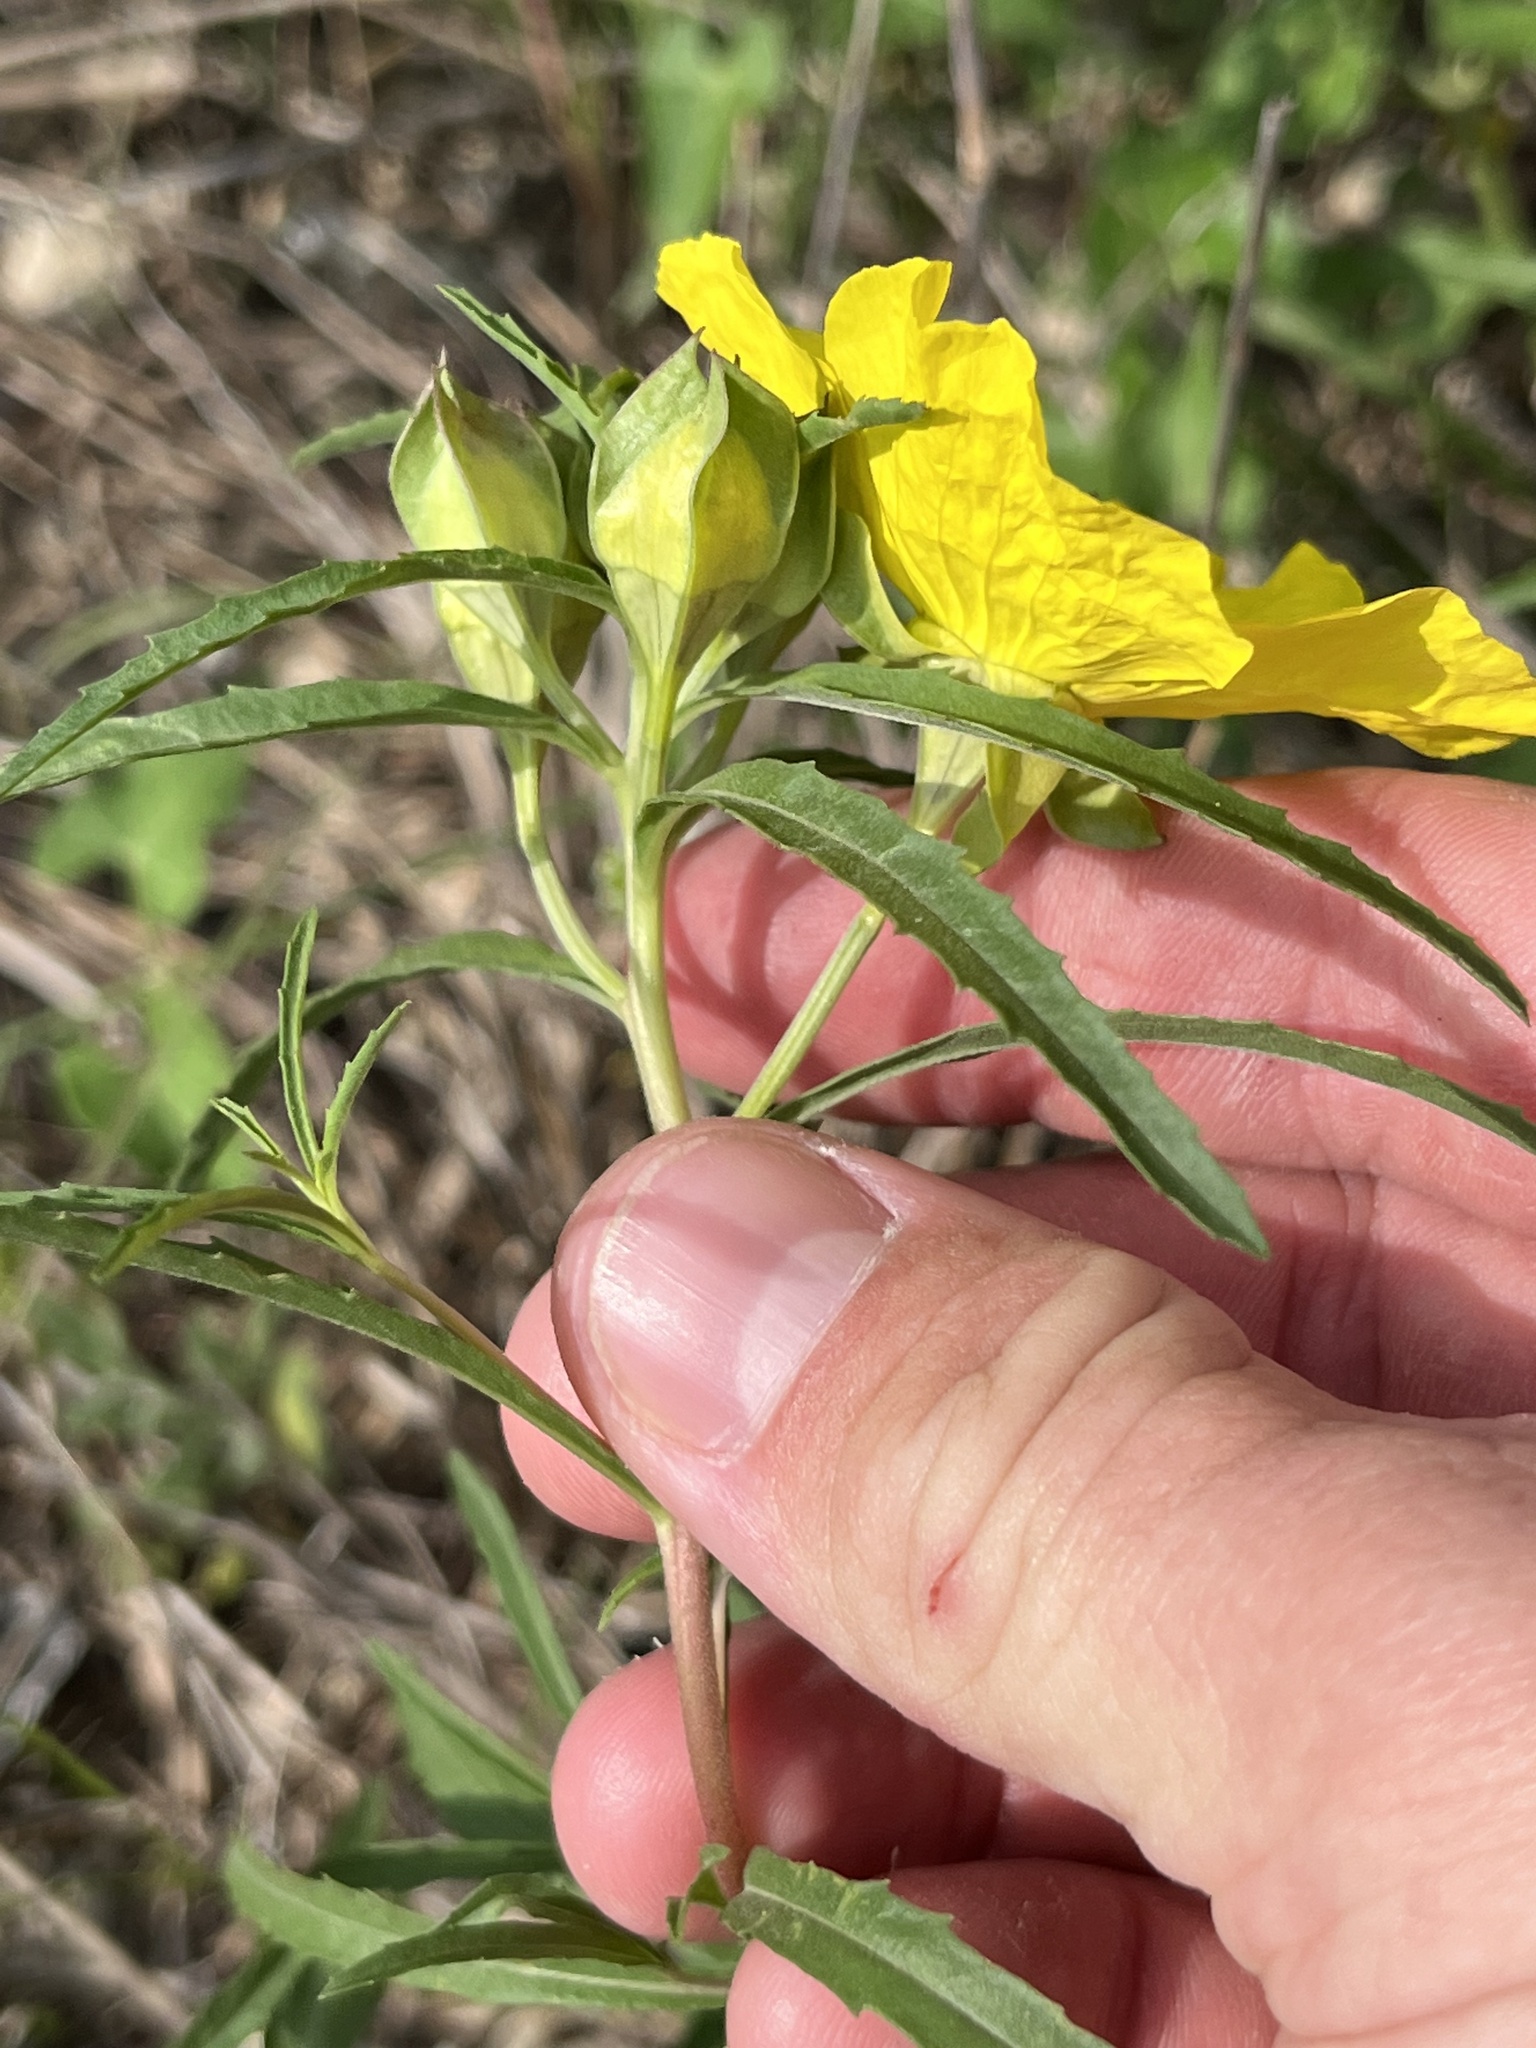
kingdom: Plantae
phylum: Tracheophyta
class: Magnoliopsida
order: Myrtales
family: Onagraceae
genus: Oenothera
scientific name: Oenothera
